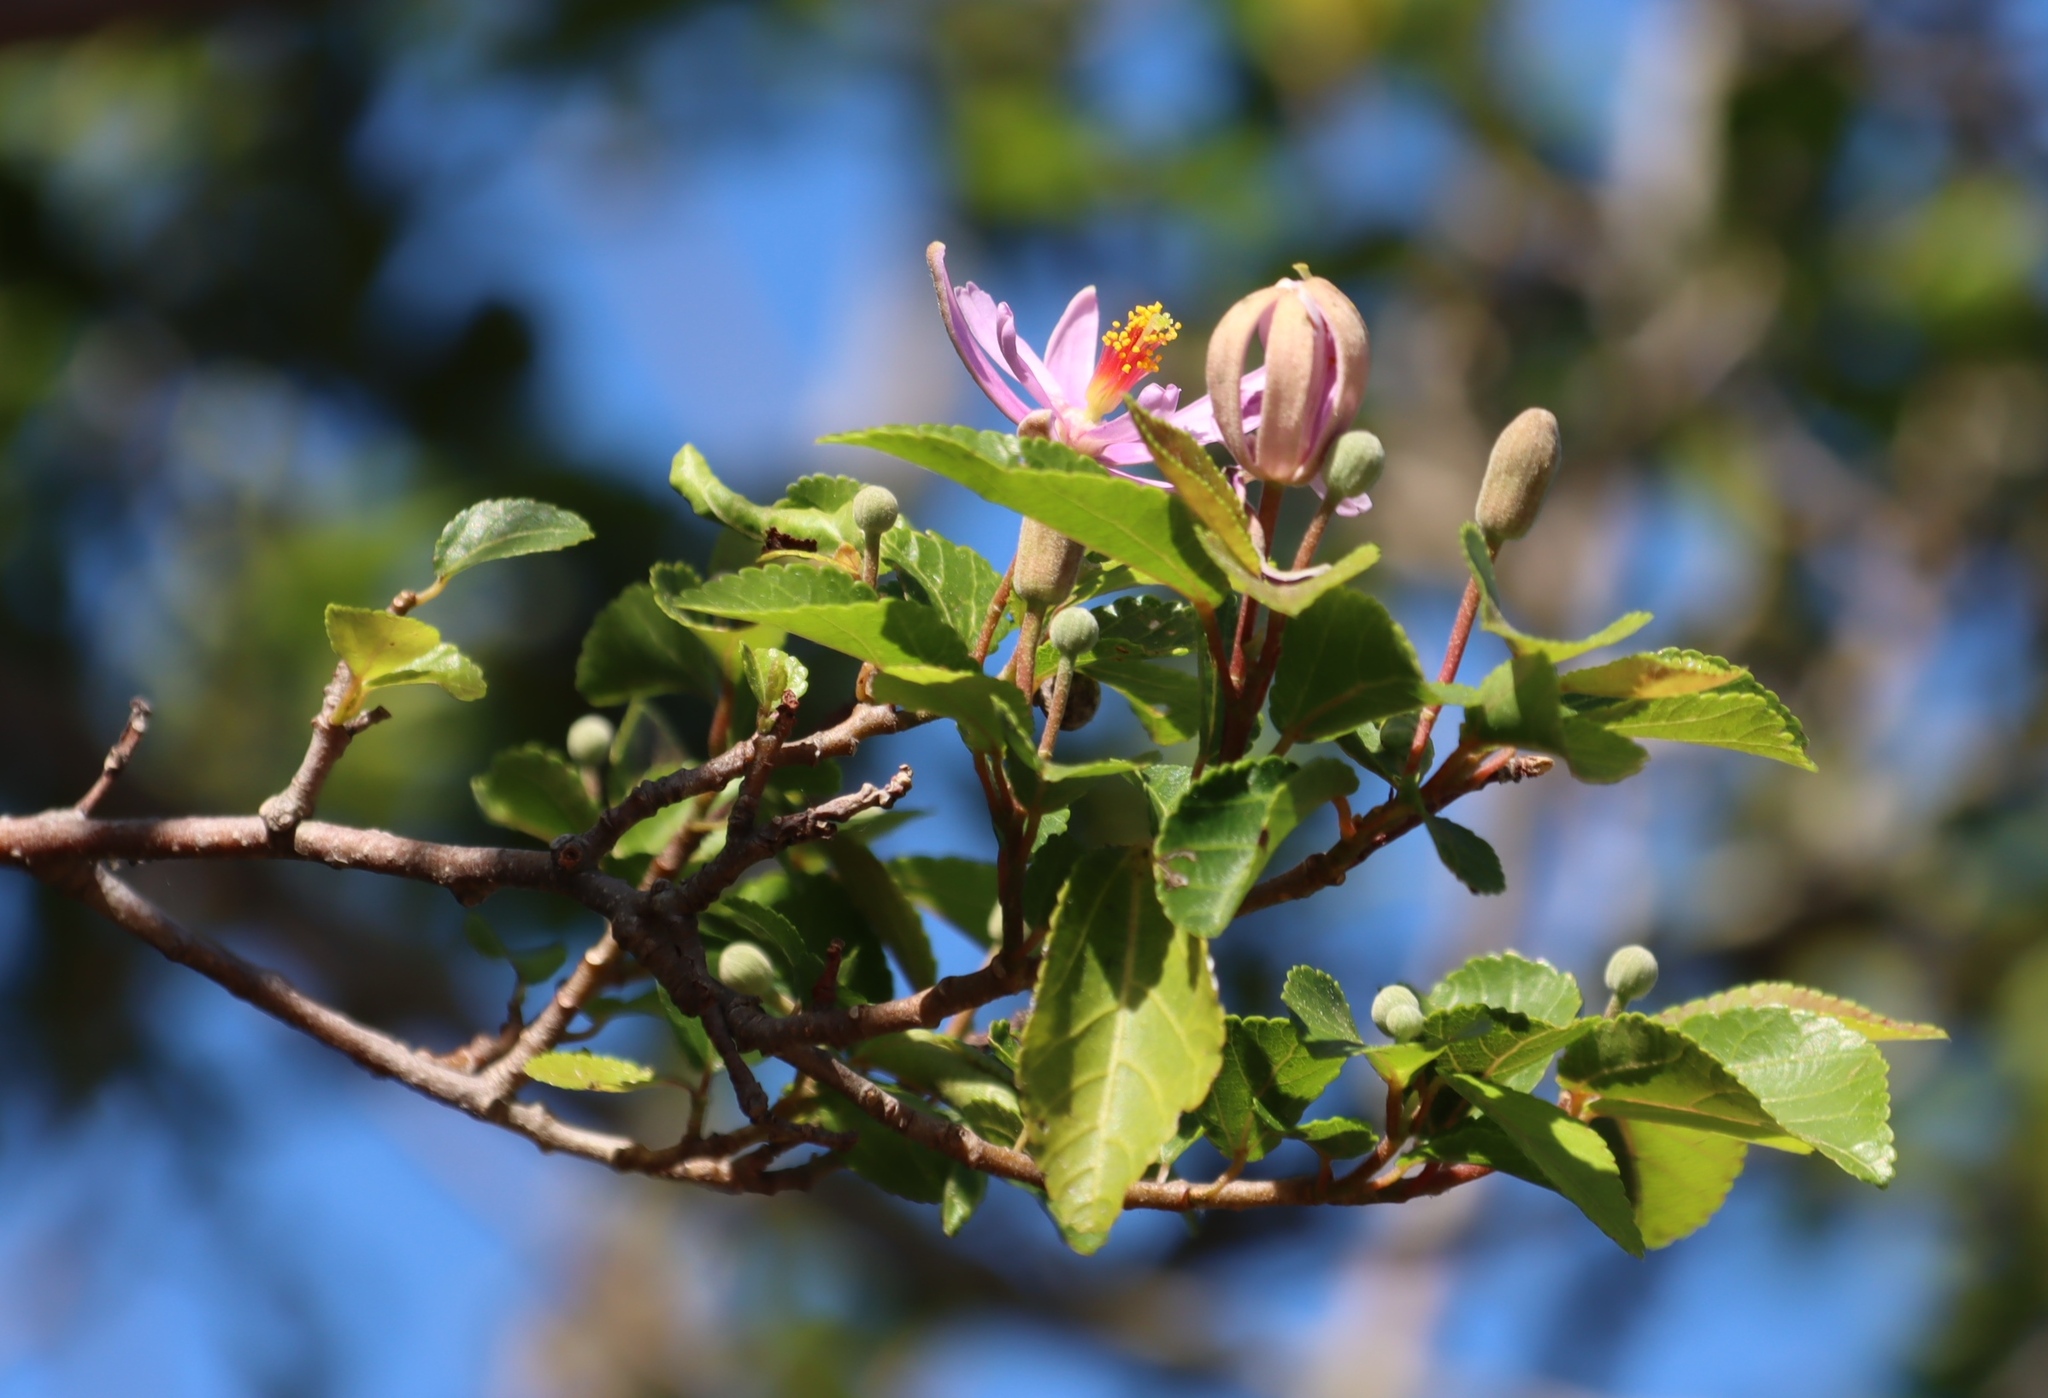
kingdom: Plantae
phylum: Tracheophyta
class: Magnoliopsida
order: Malvales
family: Malvaceae
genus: Grewia
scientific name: Grewia occidentalis
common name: Crossberry
